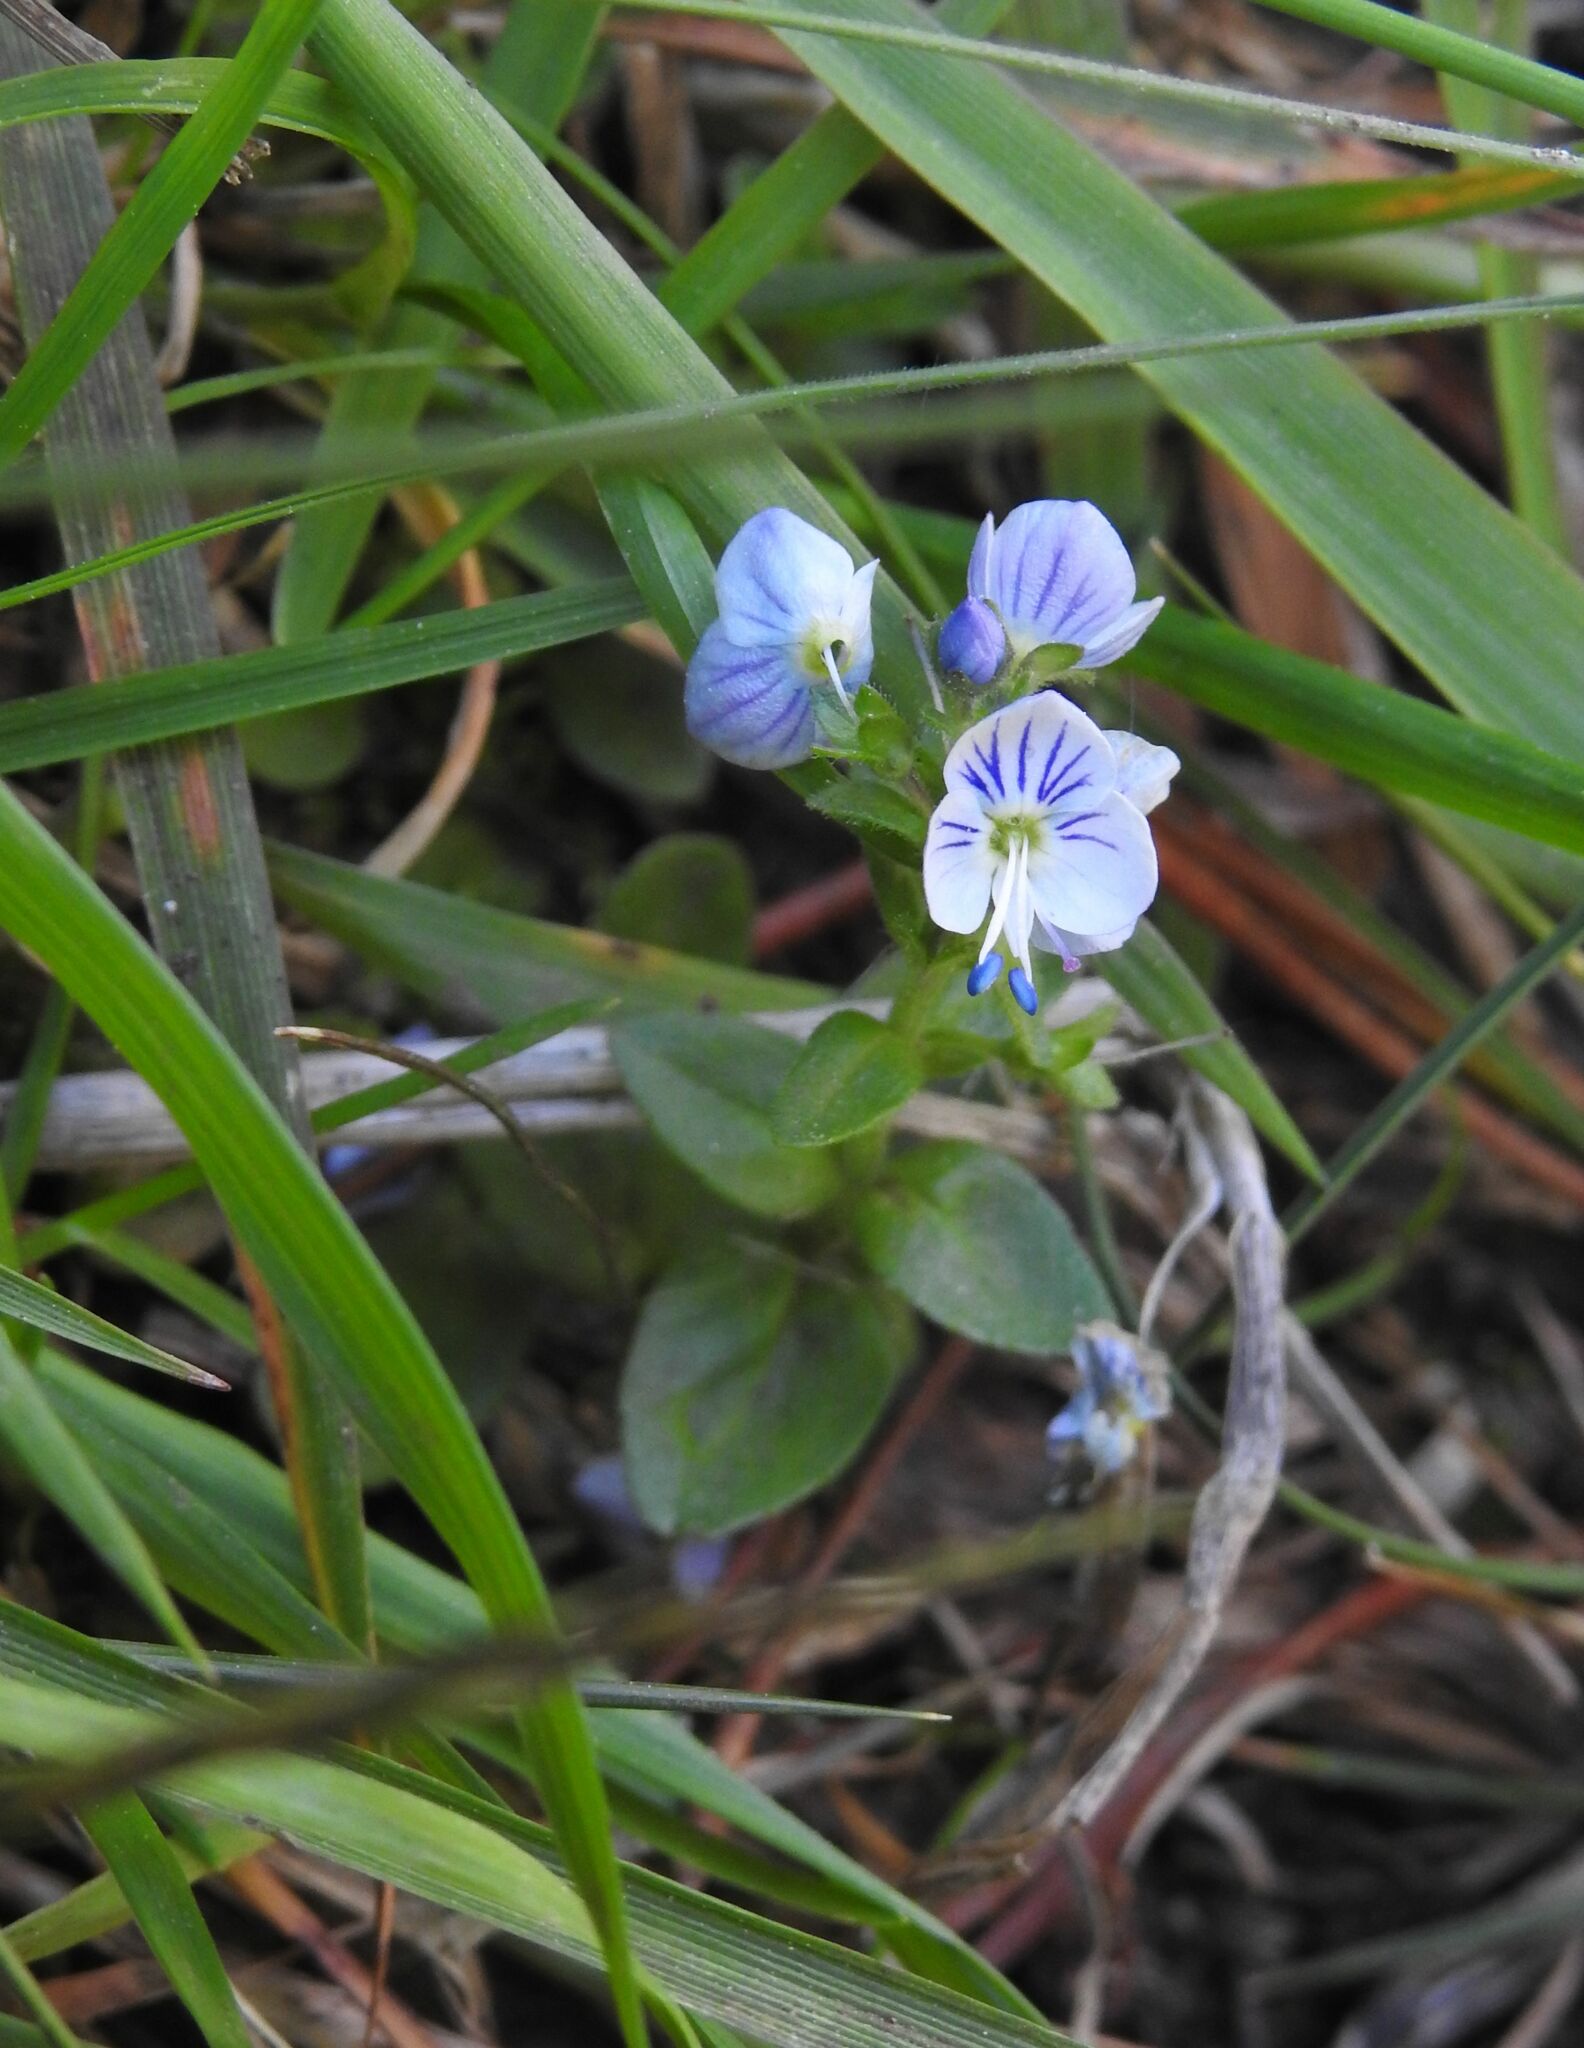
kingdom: Plantae
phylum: Tracheophyta
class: Magnoliopsida
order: Lamiales
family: Plantaginaceae
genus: Veronica
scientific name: Veronica serpyllifolia
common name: Thyme-leaved speedwell
